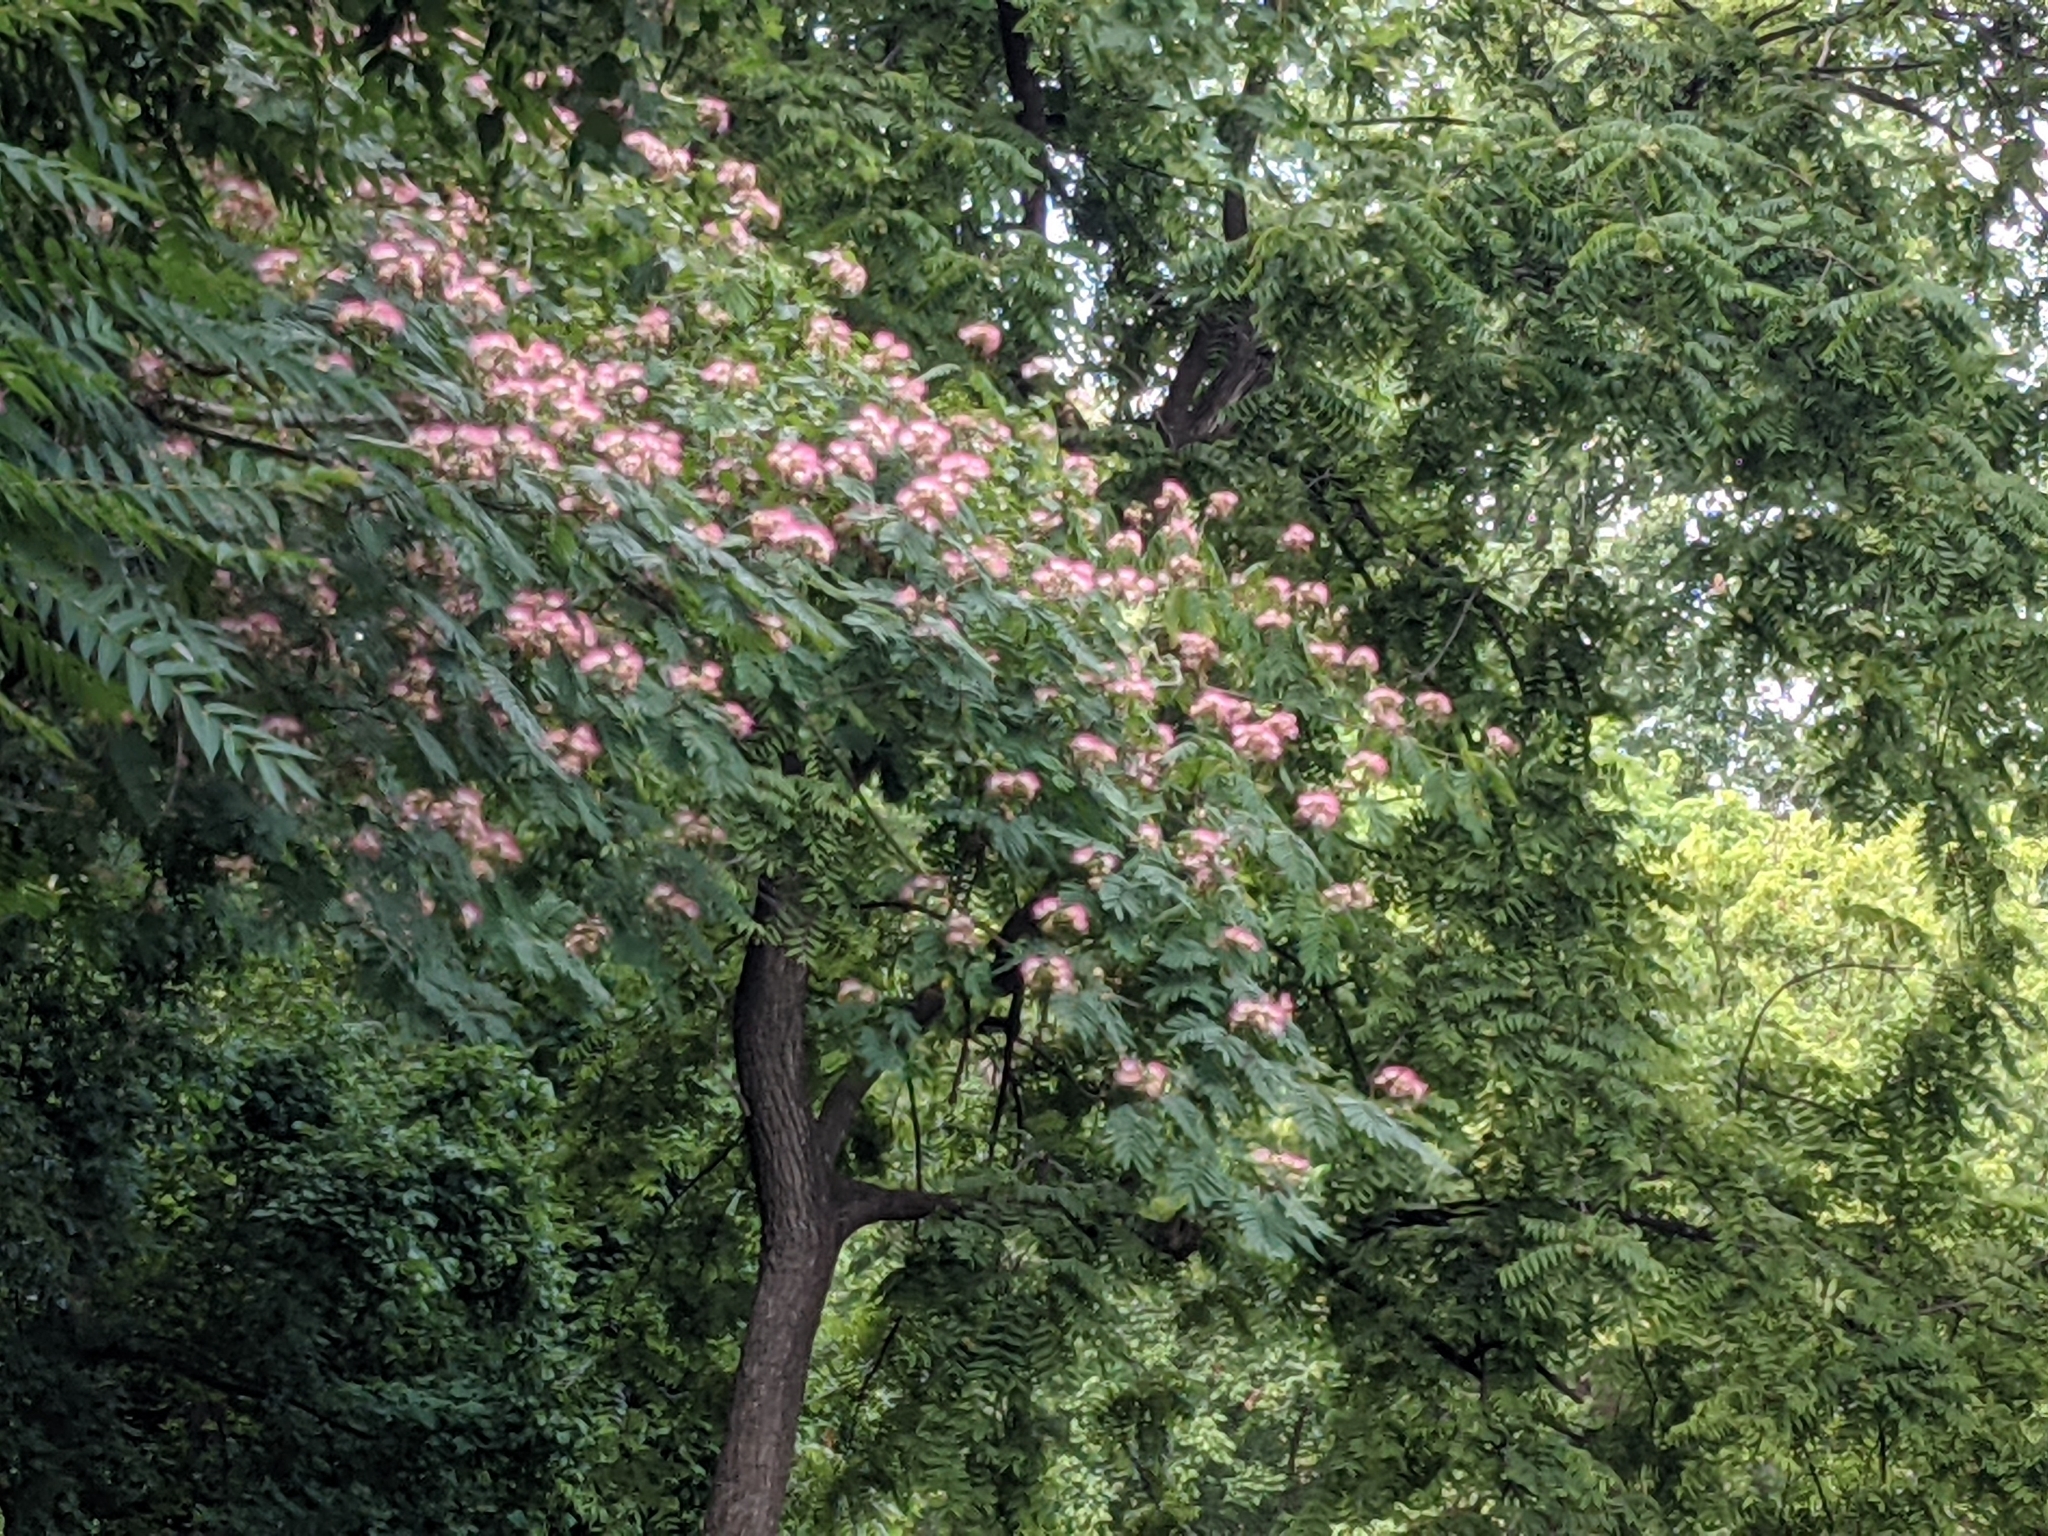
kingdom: Plantae
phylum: Tracheophyta
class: Magnoliopsida
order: Fabales
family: Fabaceae
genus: Albizia
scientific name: Albizia julibrissin
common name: Silktree
